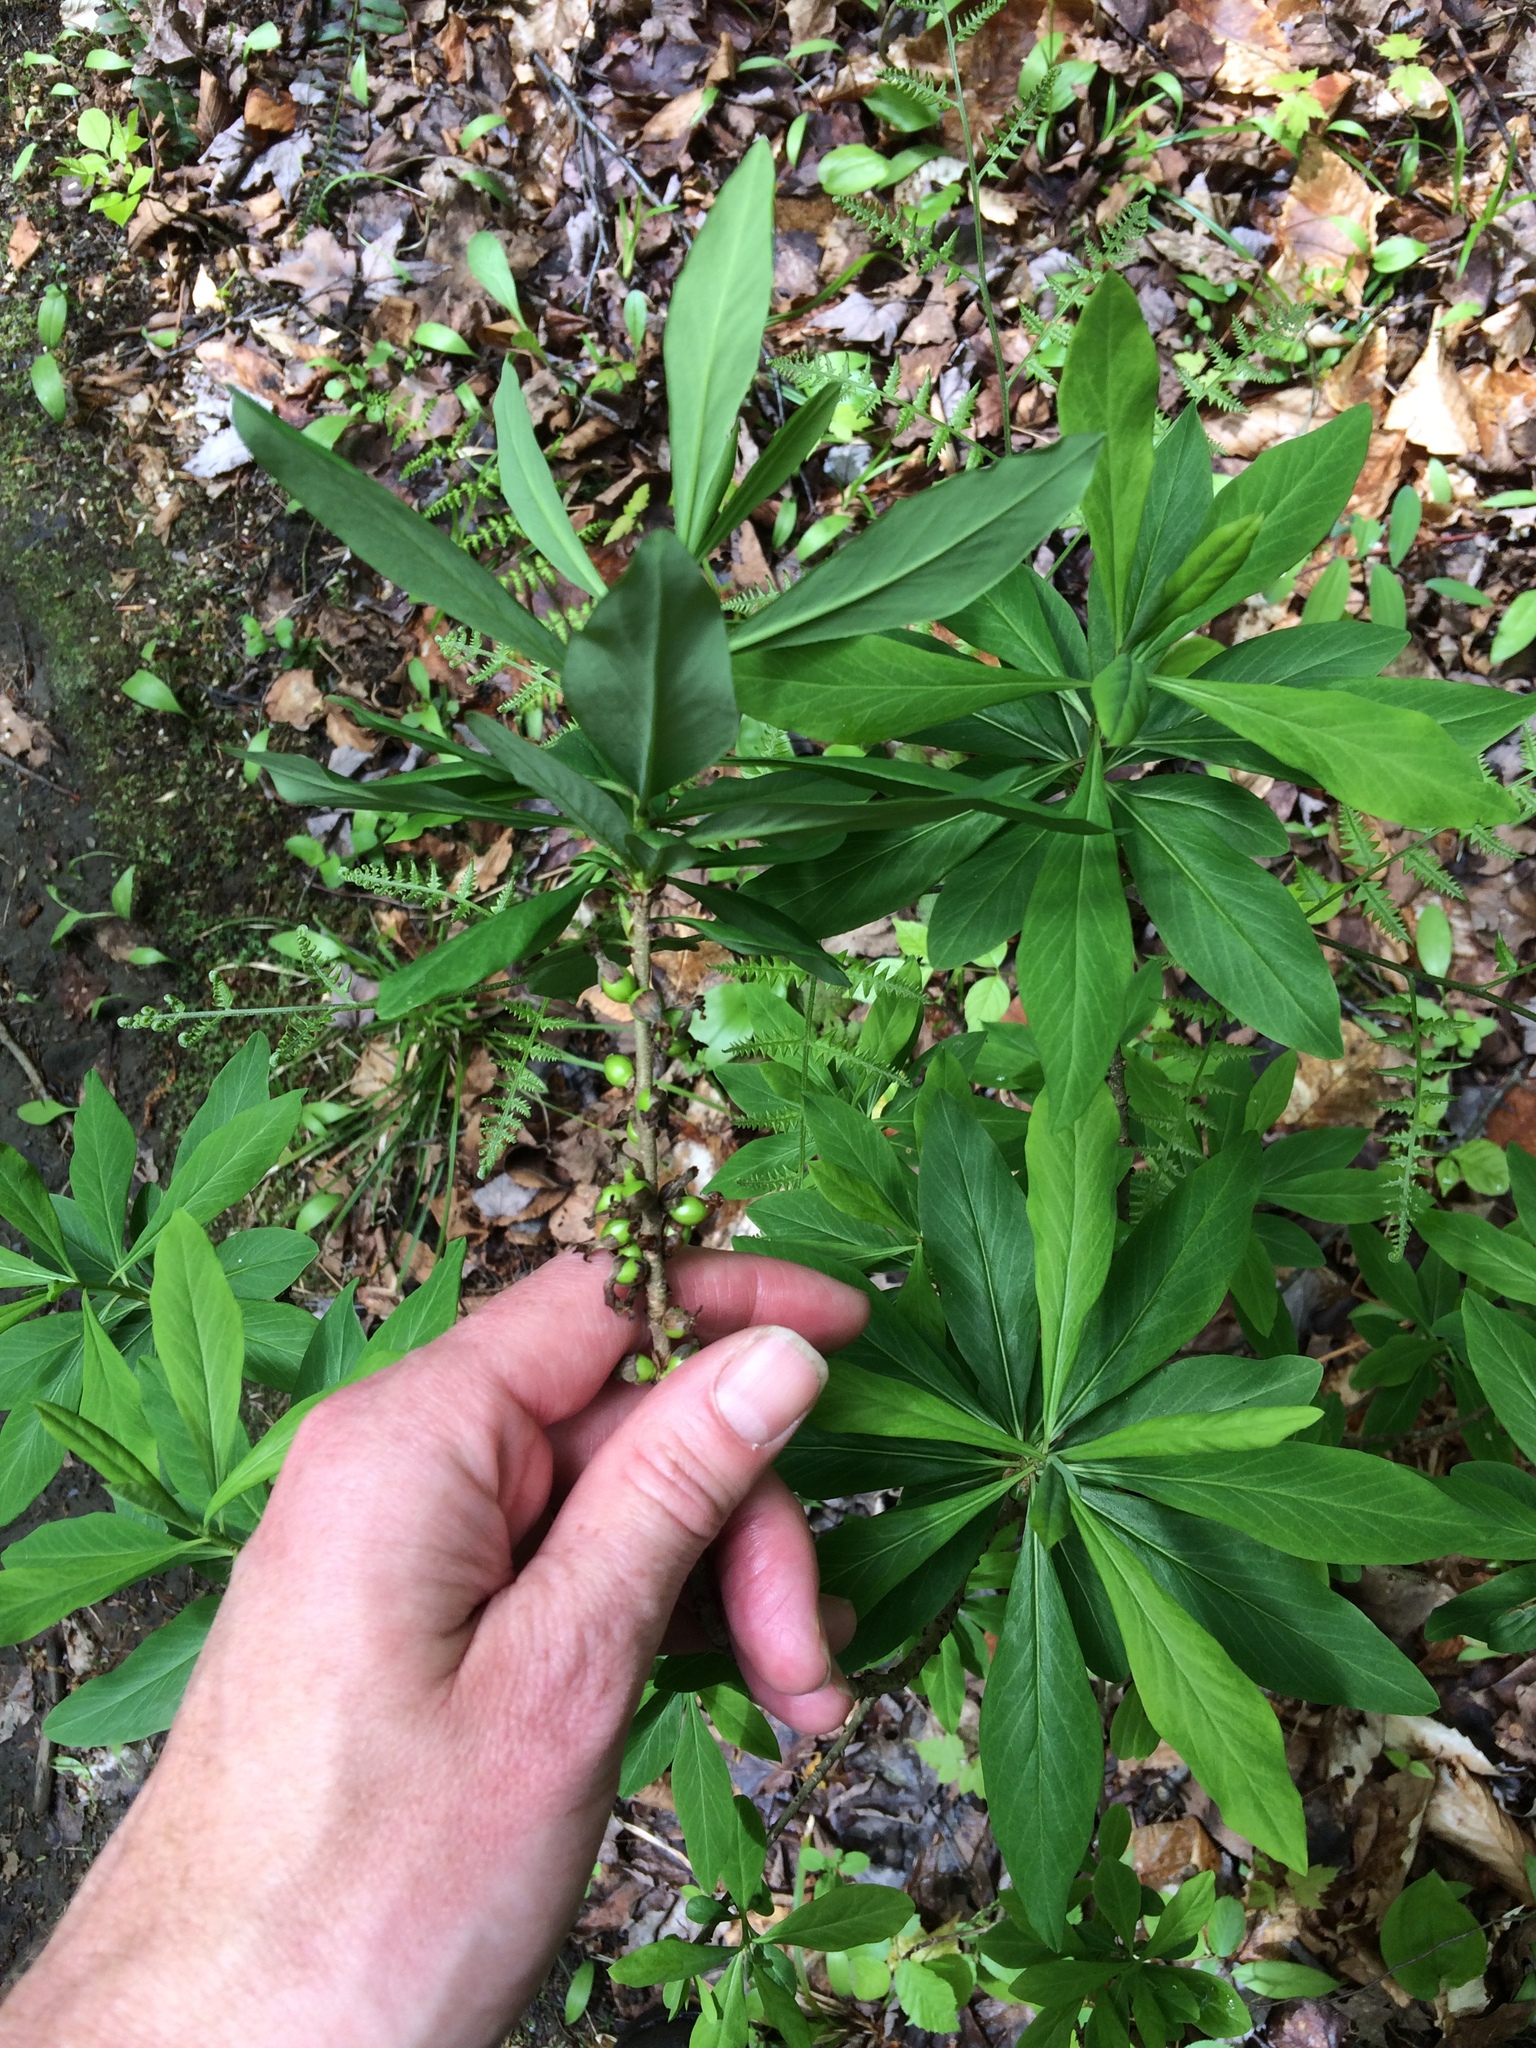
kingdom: Plantae
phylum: Tracheophyta
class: Magnoliopsida
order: Malvales
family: Thymelaeaceae
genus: Daphne
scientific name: Daphne mezereum
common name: Mezereon
